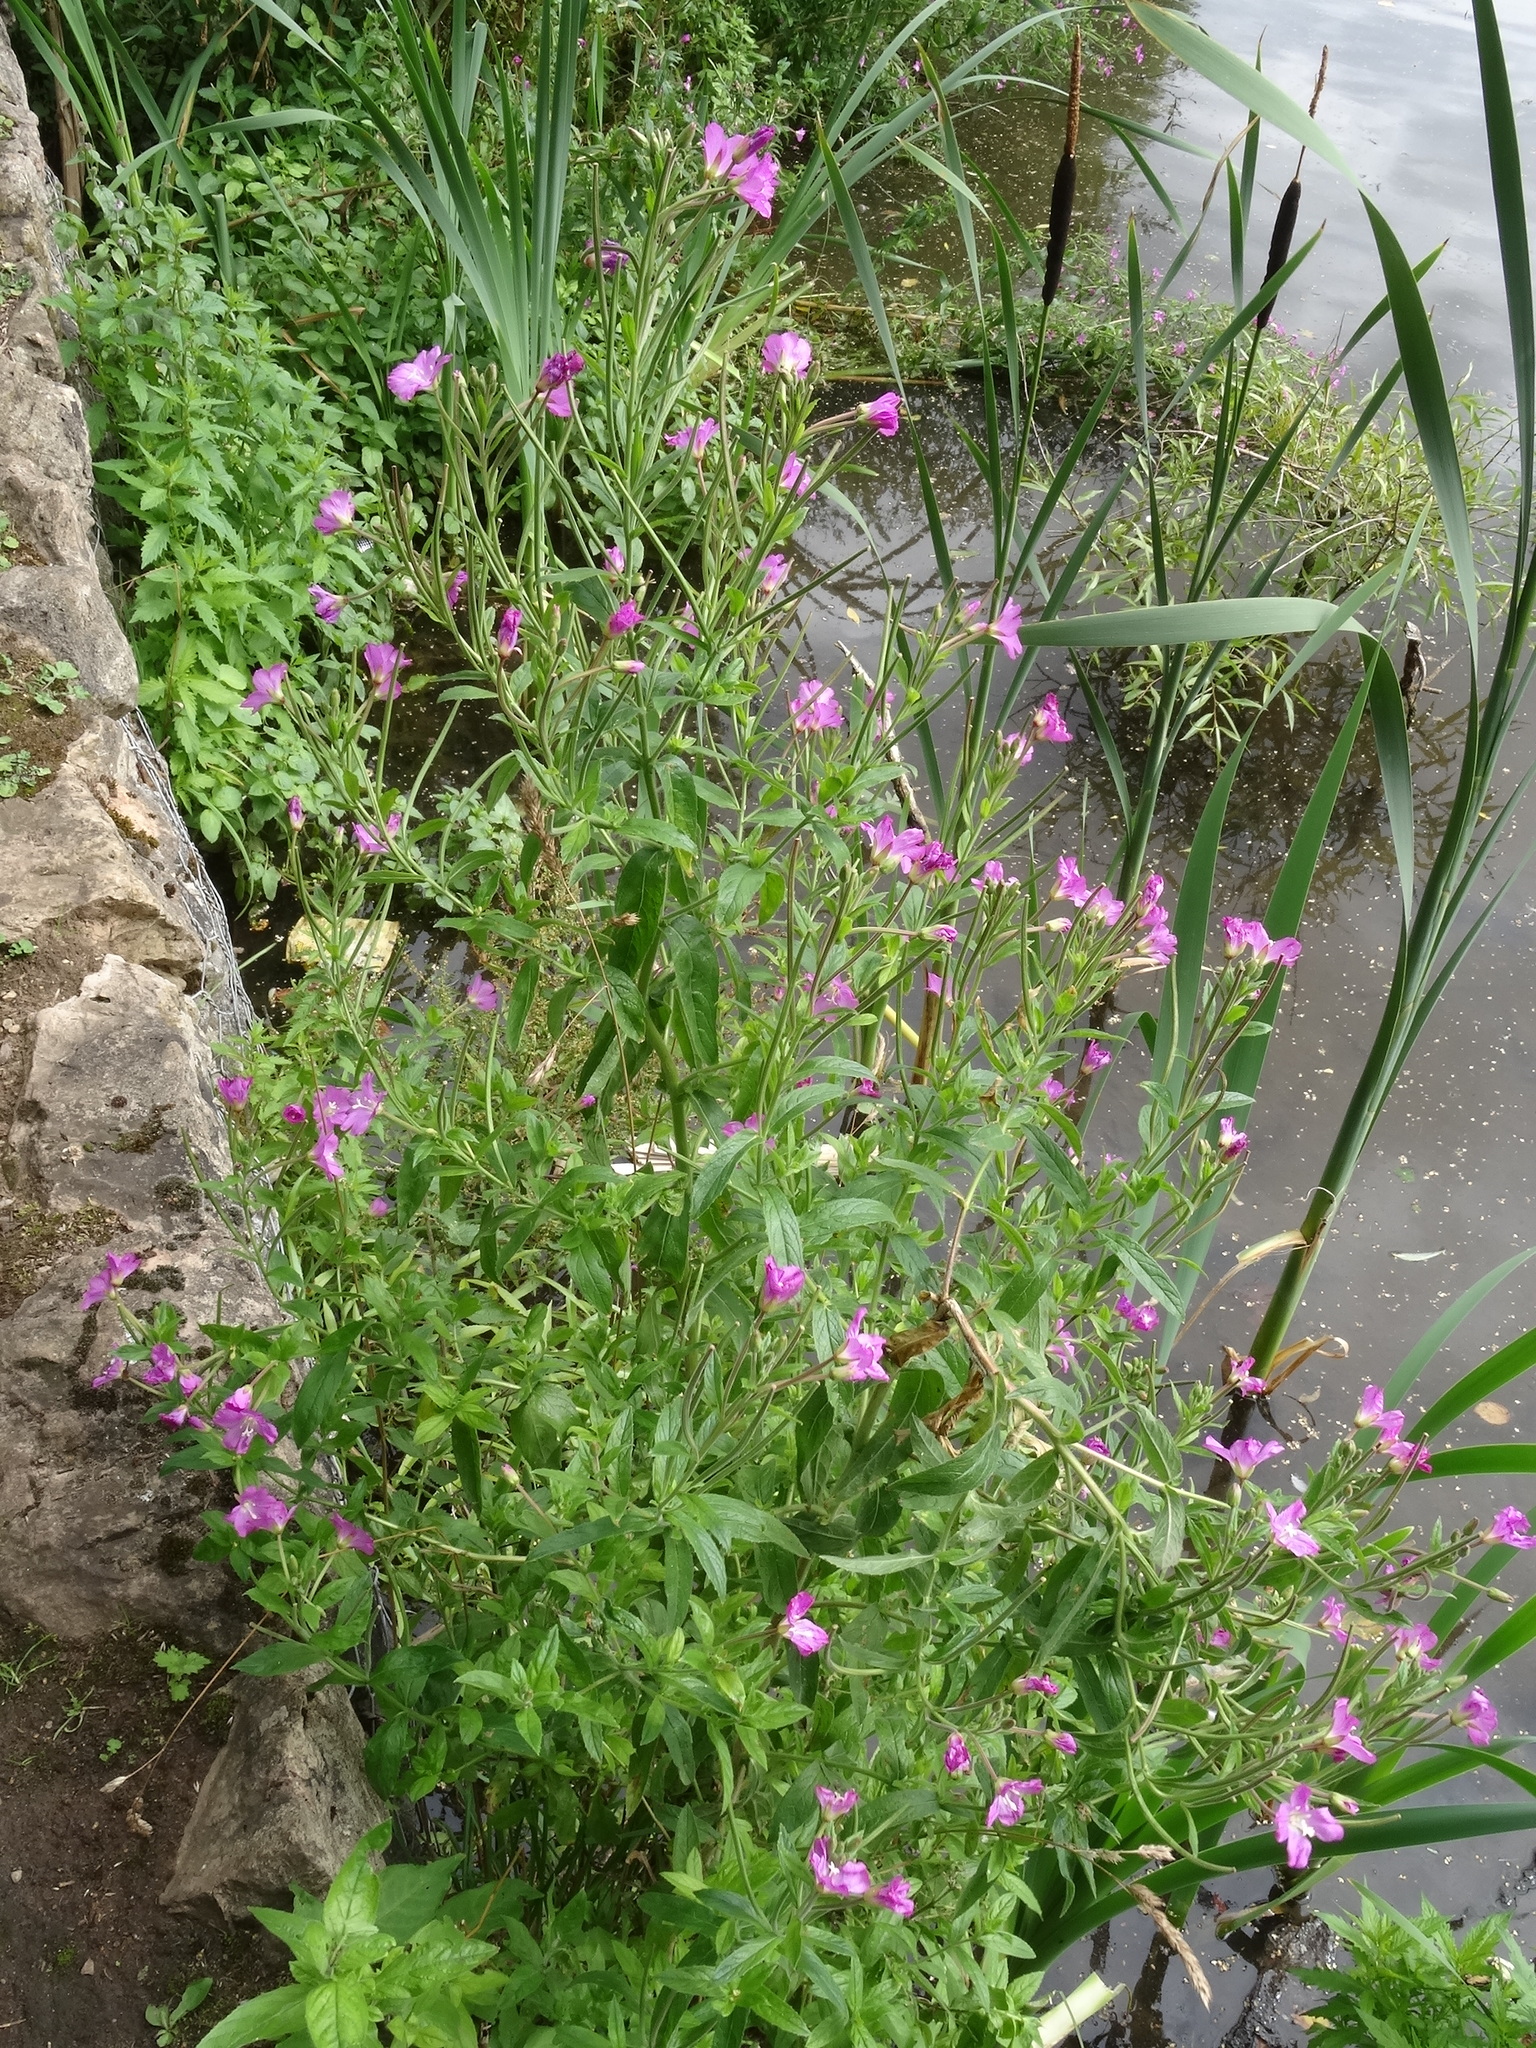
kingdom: Plantae
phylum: Tracheophyta
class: Magnoliopsida
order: Myrtales
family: Onagraceae
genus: Epilobium
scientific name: Epilobium hirsutum
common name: Great willowherb
